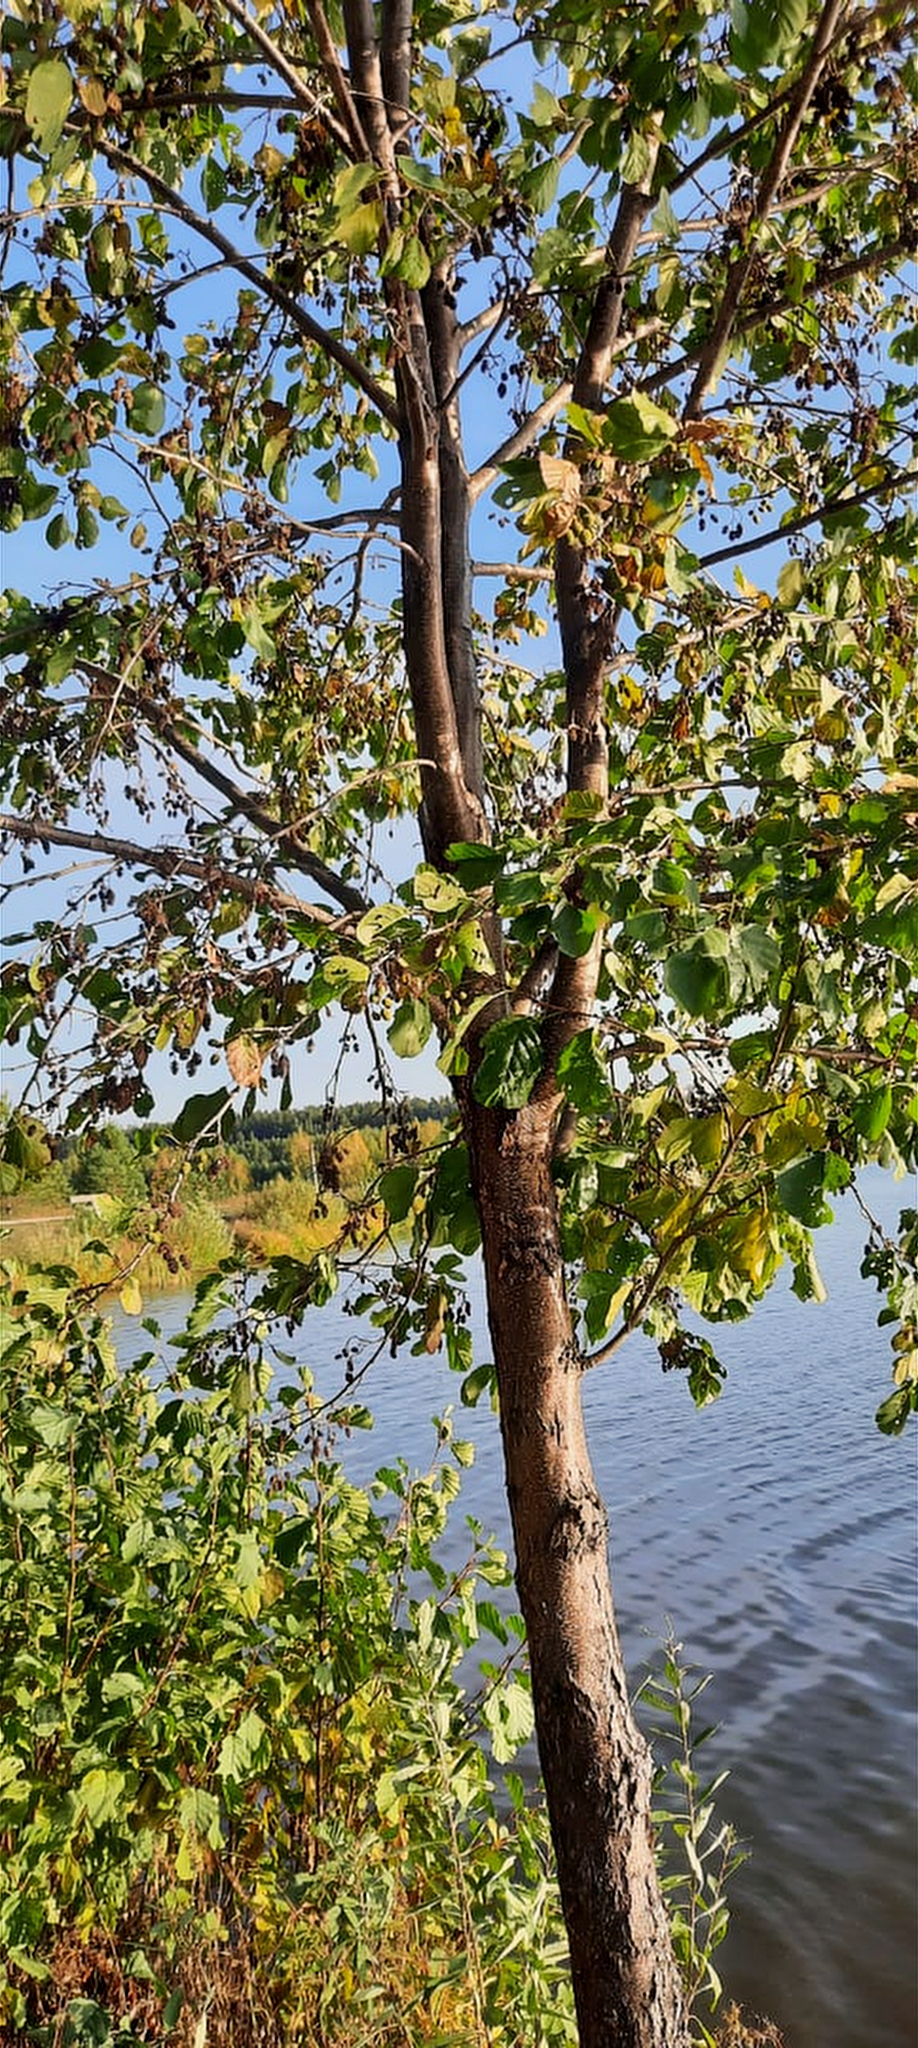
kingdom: Plantae
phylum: Tracheophyta
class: Magnoliopsida
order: Fagales
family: Betulaceae
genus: Alnus
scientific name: Alnus glutinosa
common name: Black alder
